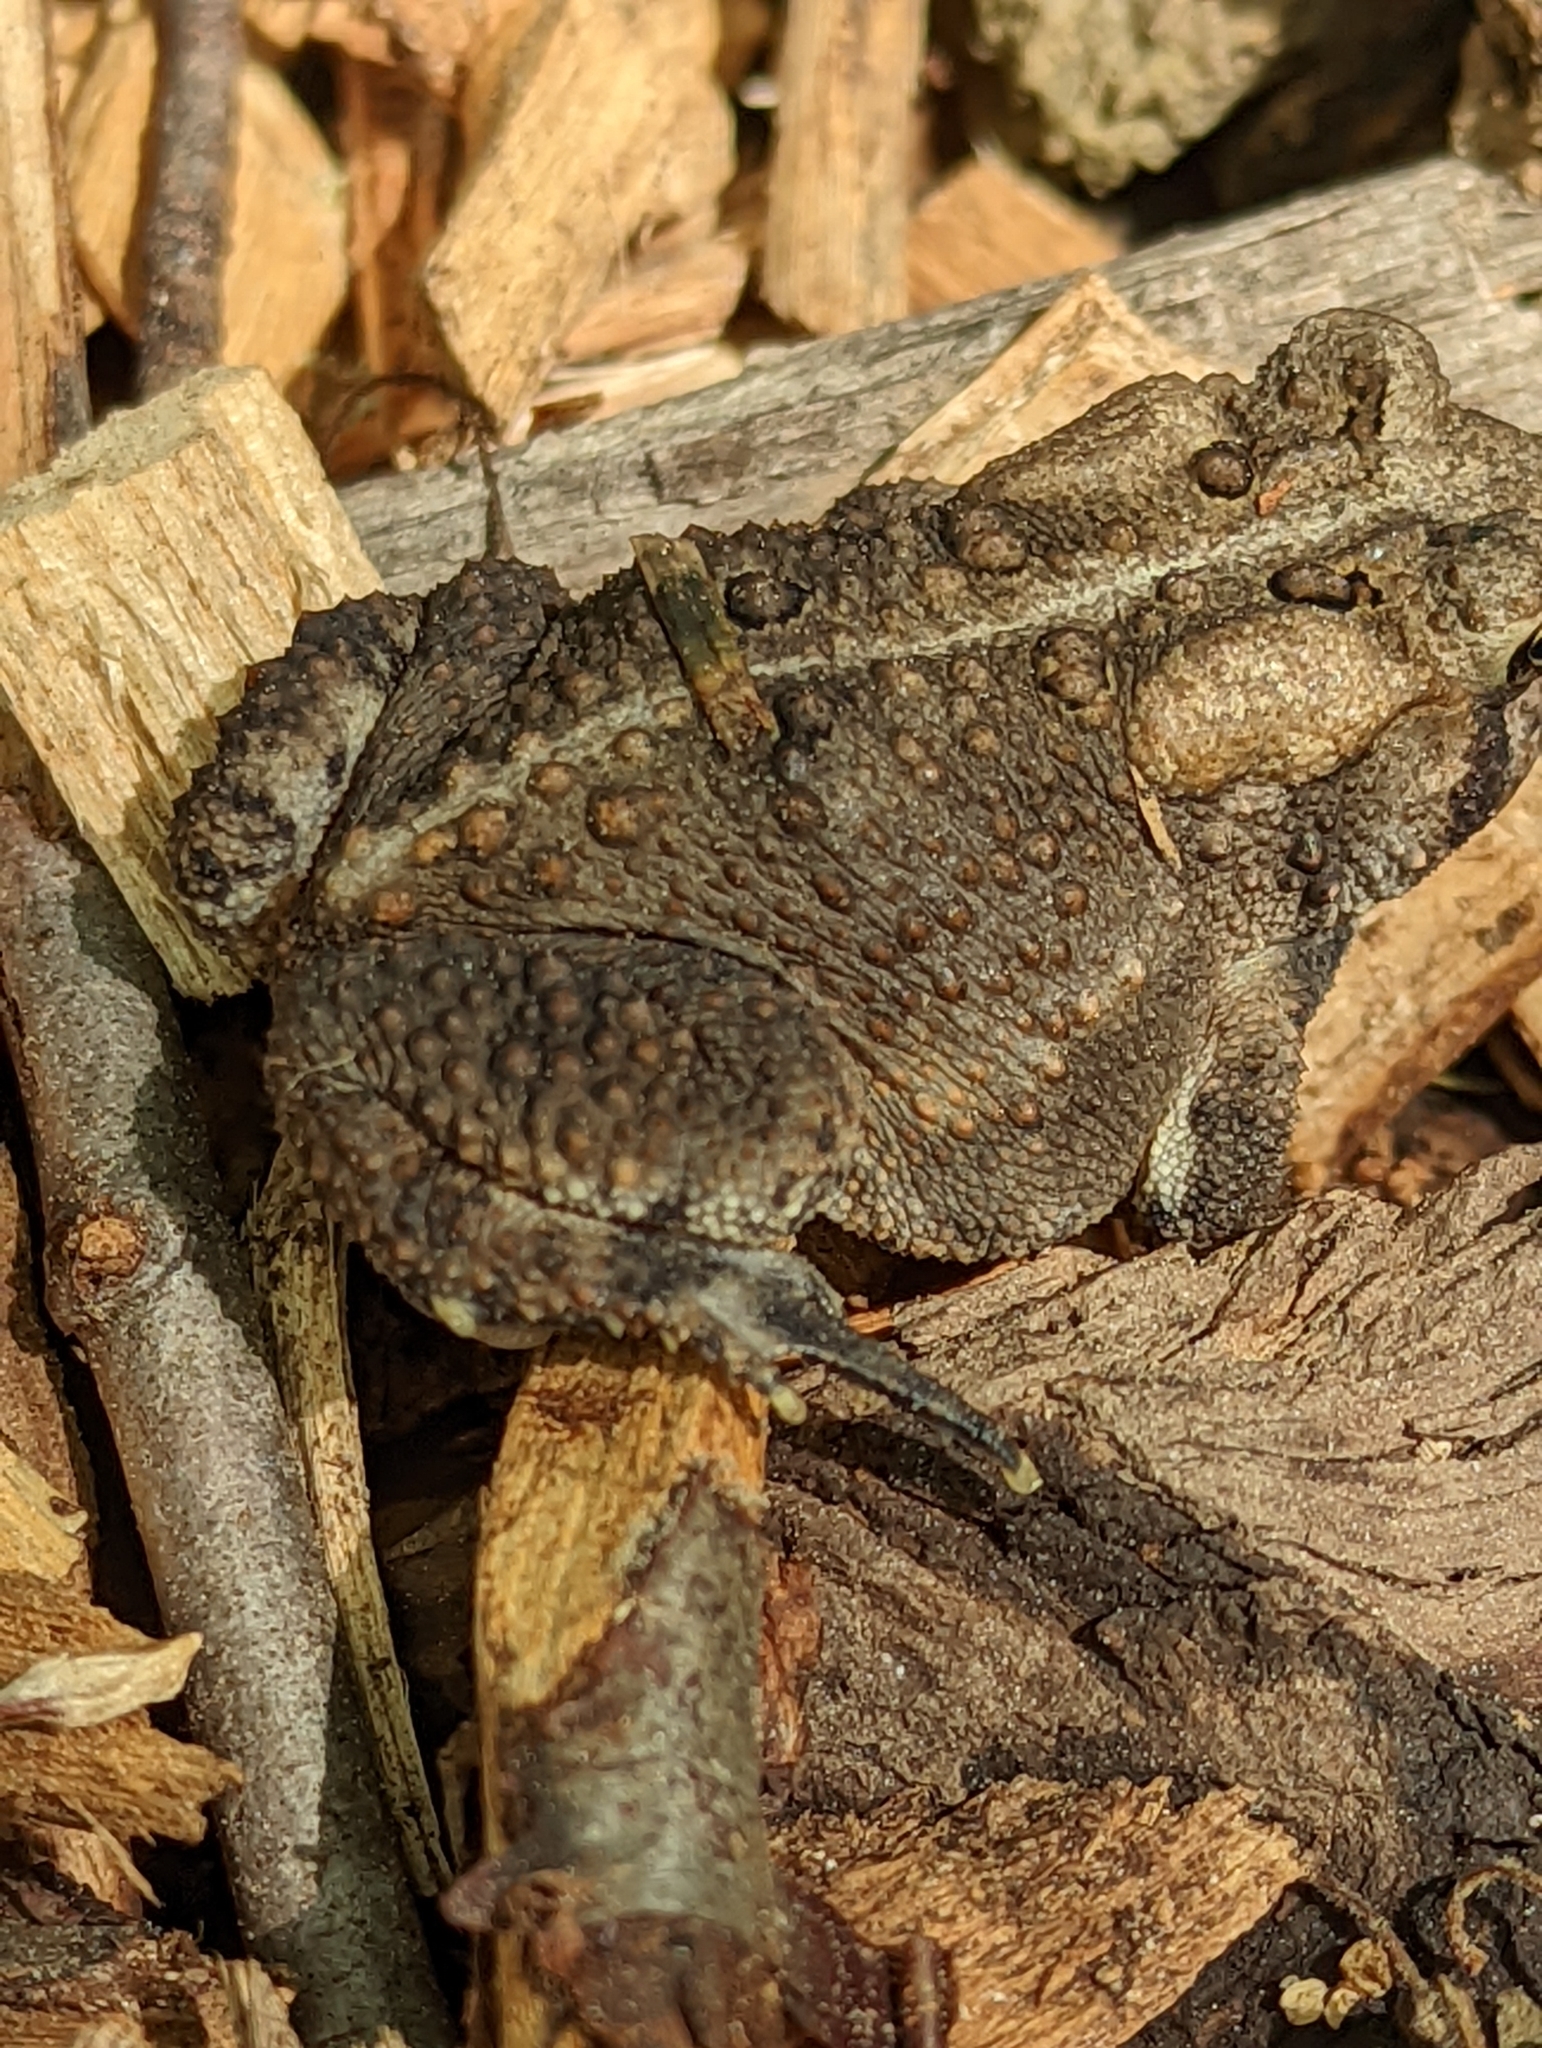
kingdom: Animalia
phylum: Chordata
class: Amphibia
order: Anura
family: Bufonidae
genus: Anaxyrus
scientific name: Anaxyrus americanus
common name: American toad
